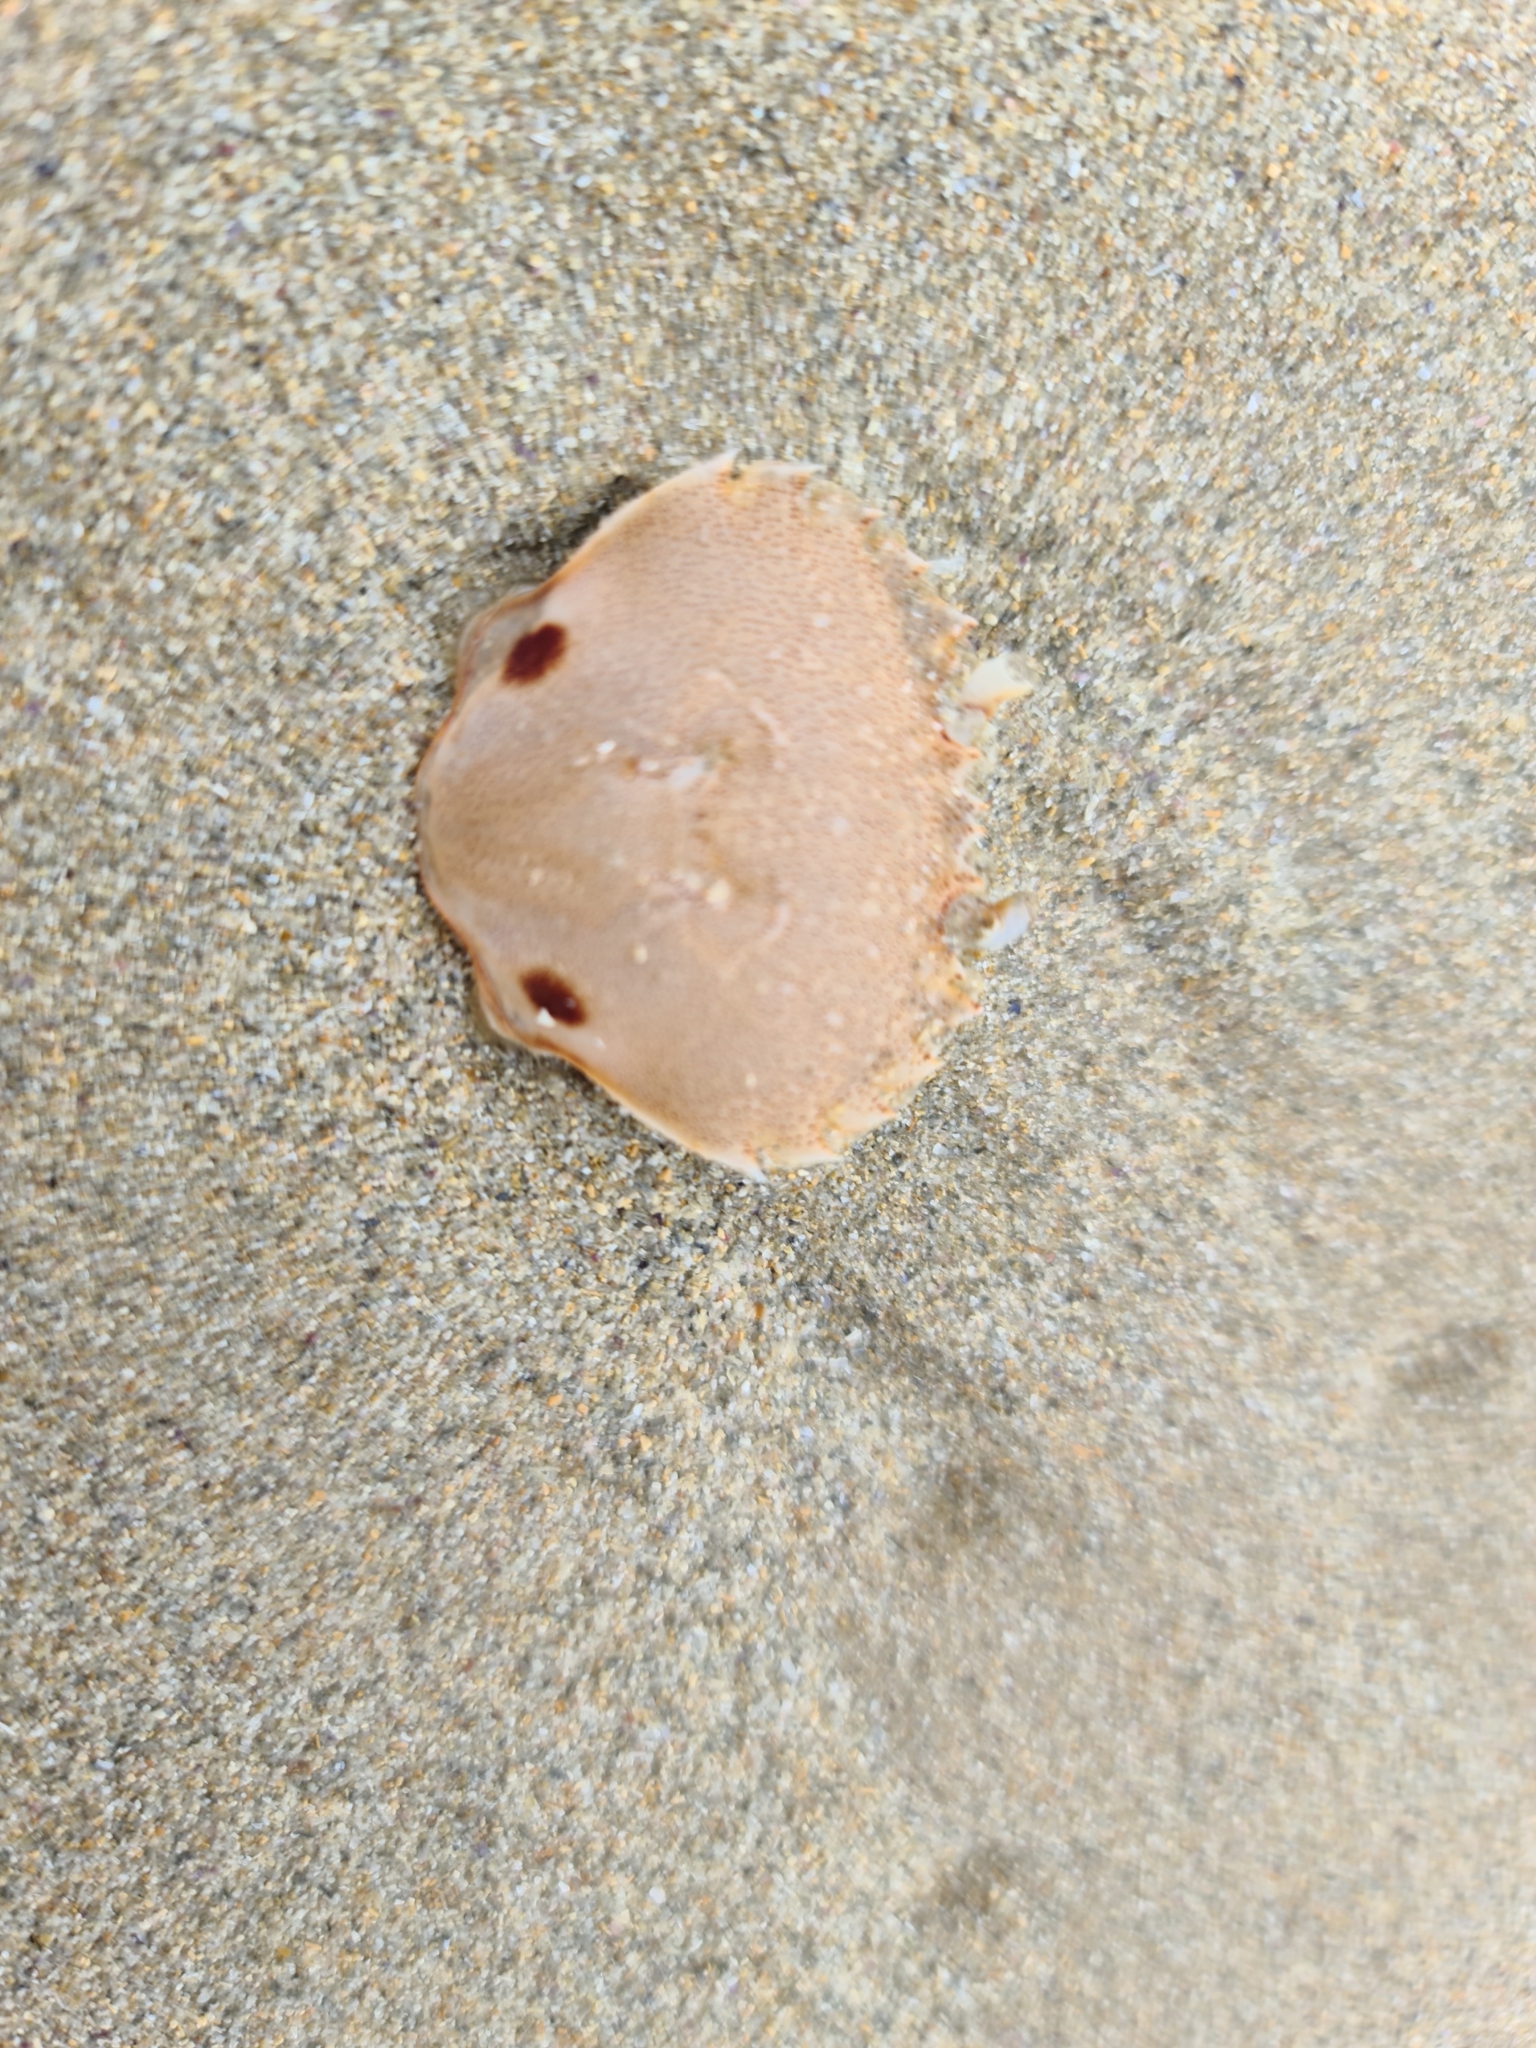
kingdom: Animalia
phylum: Arthropoda
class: Malacostraca
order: Decapoda
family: Ovalipidae
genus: Ovalipes
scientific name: Ovalipes australiensis
